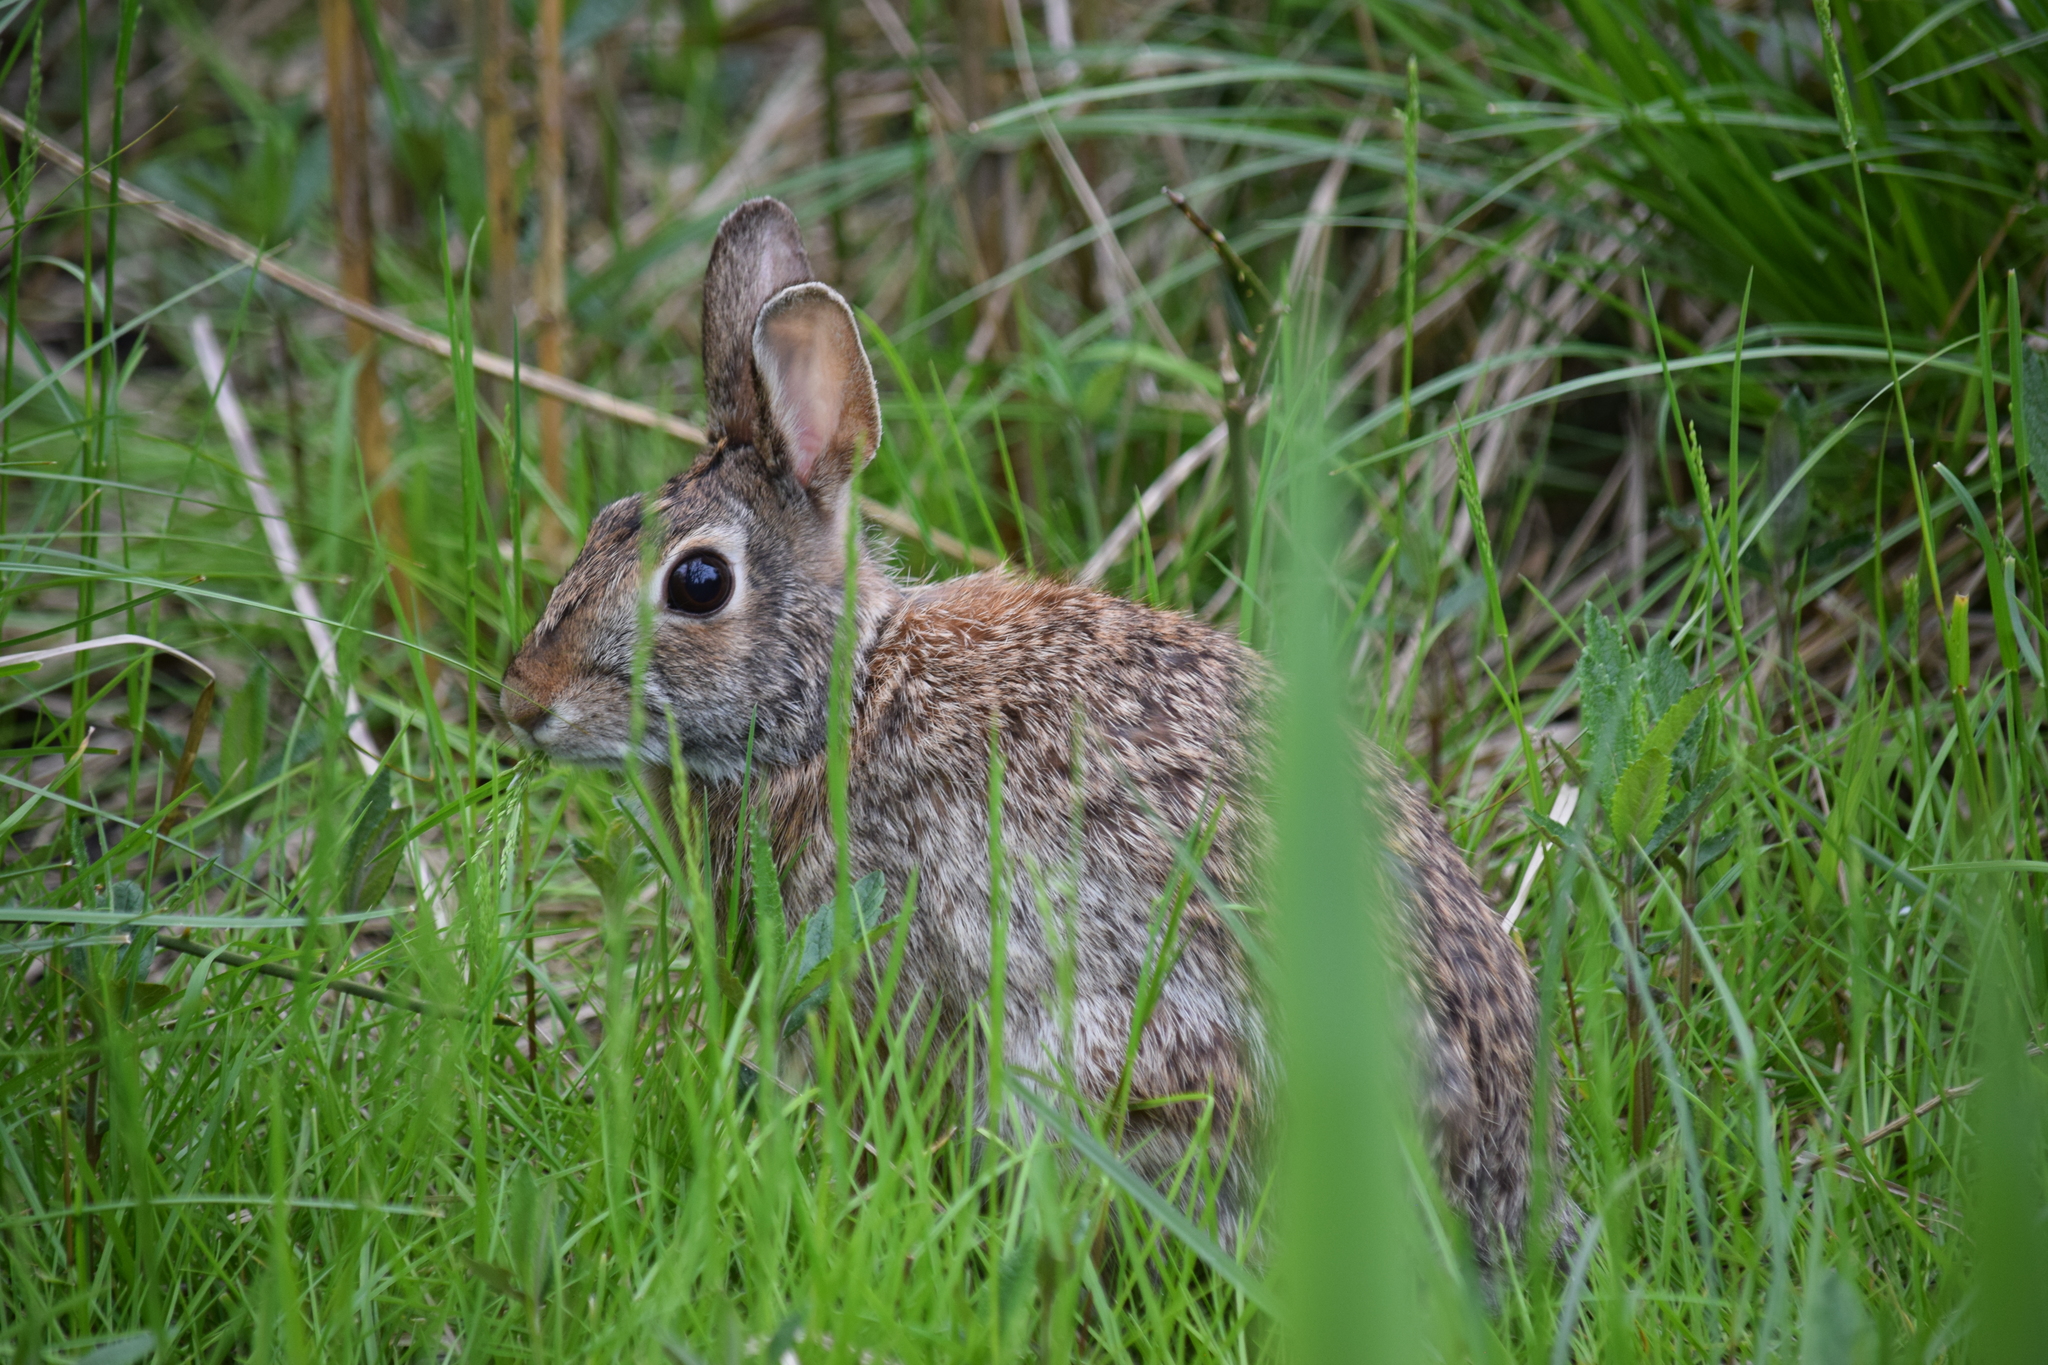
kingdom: Animalia
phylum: Chordata
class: Mammalia
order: Lagomorpha
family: Leporidae
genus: Sylvilagus
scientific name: Sylvilagus floridanus
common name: Eastern cottontail
